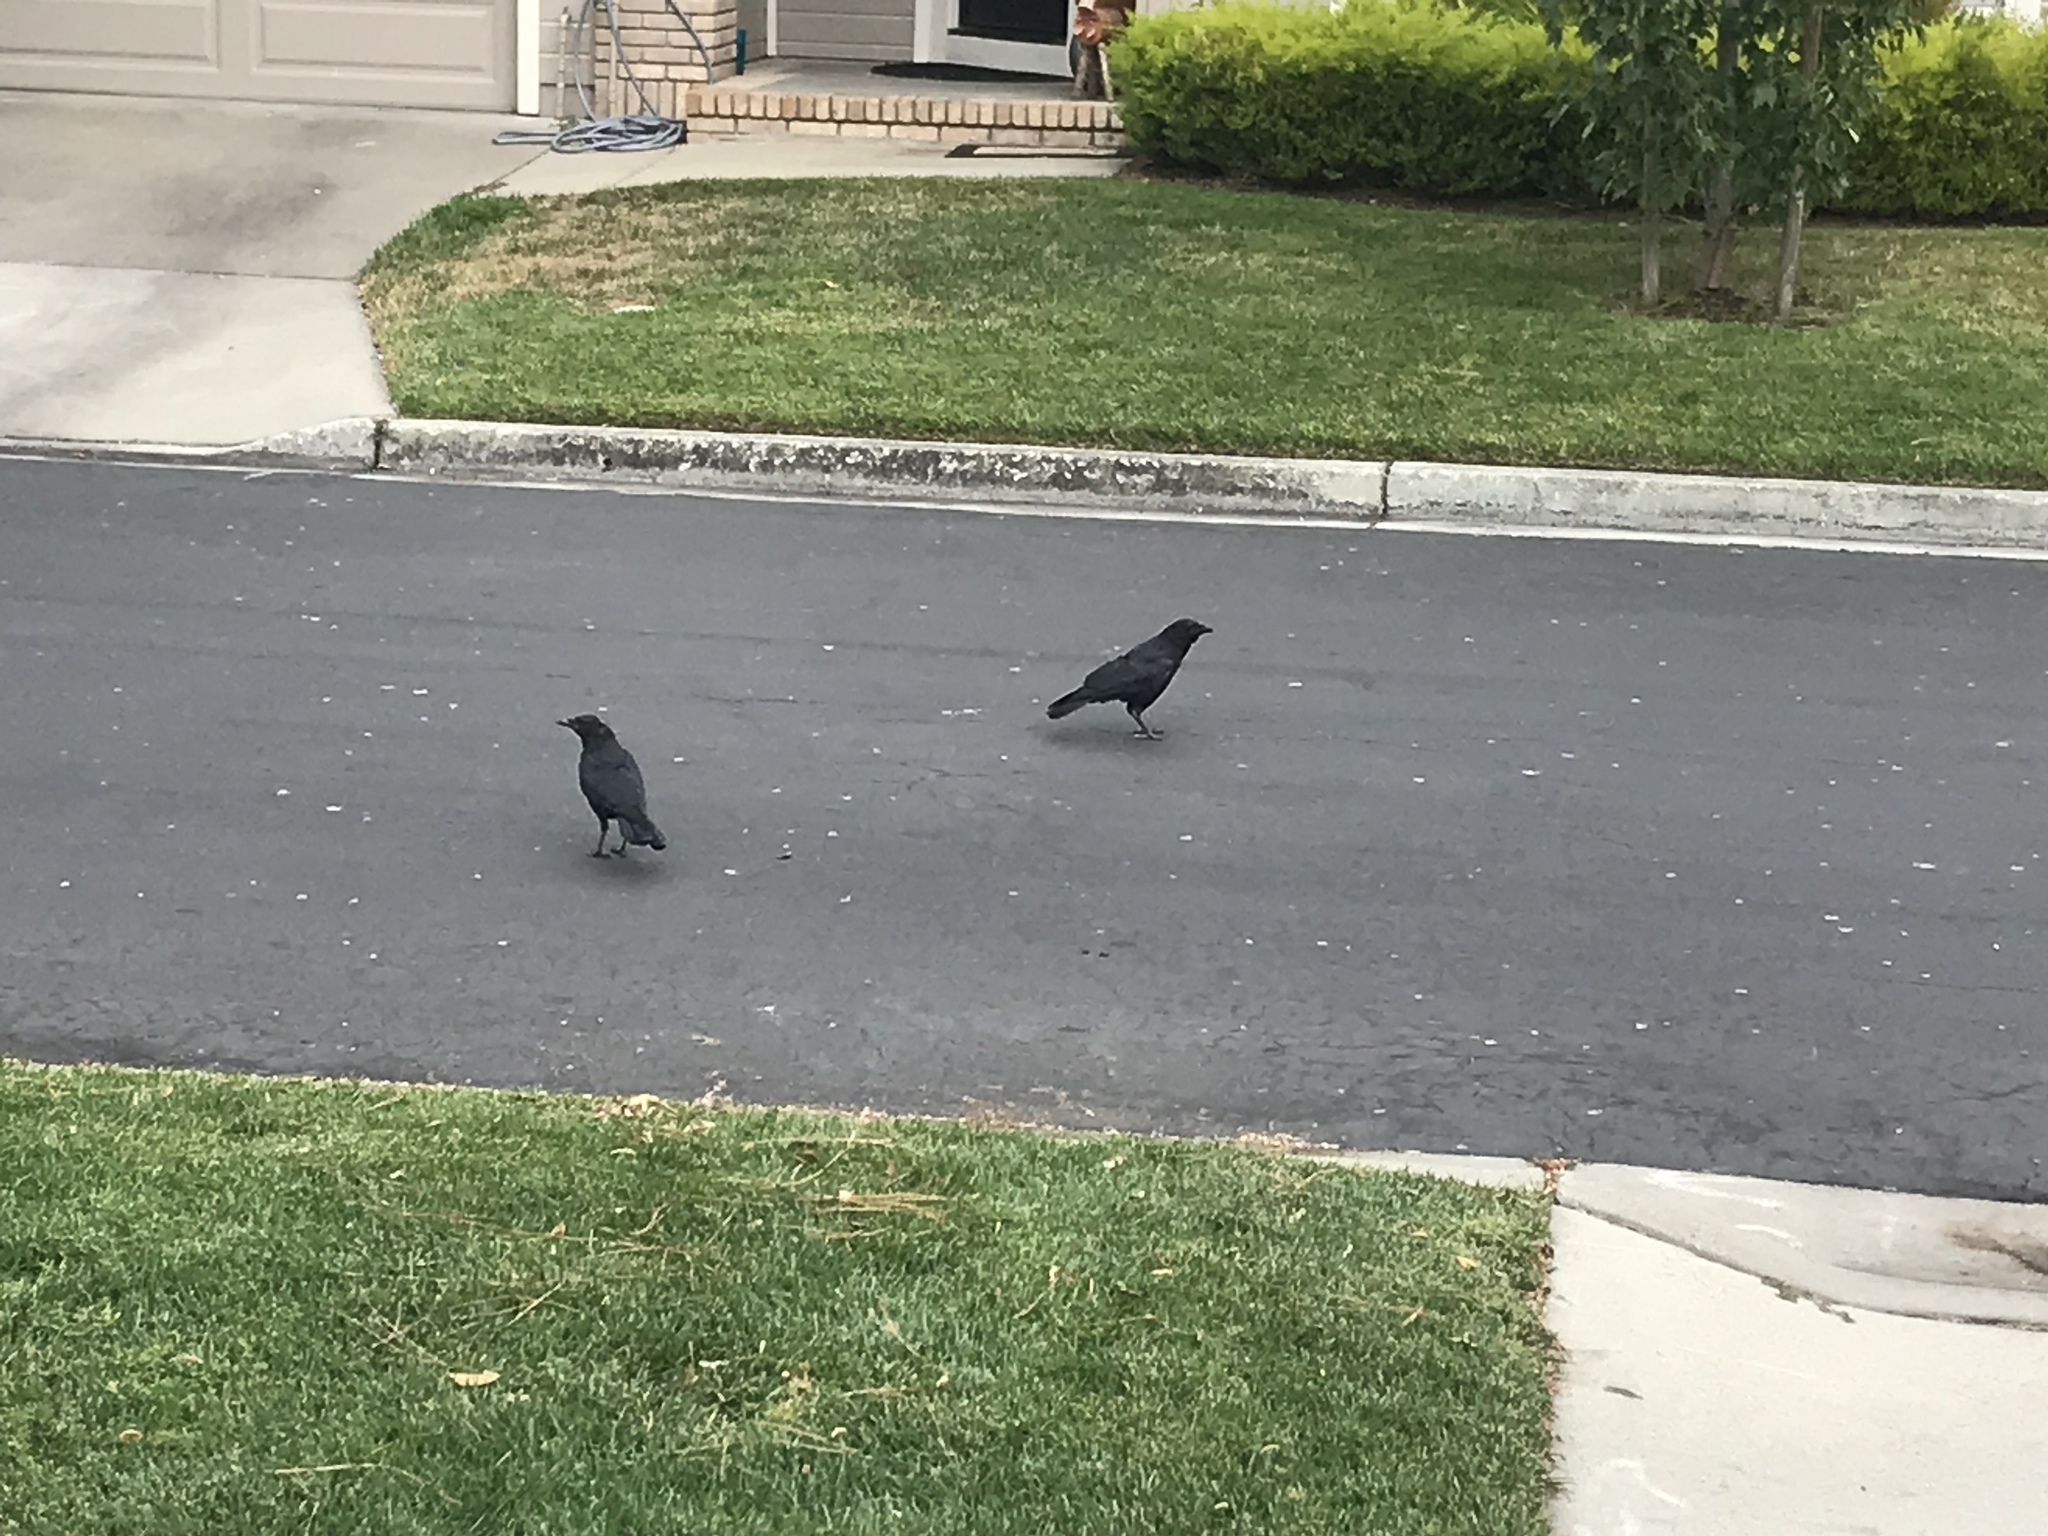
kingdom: Animalia
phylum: Chordata
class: Aves
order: Passeriformes
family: Corvidae
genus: Corvus
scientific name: Corvus brachyrhynchos
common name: American crow
